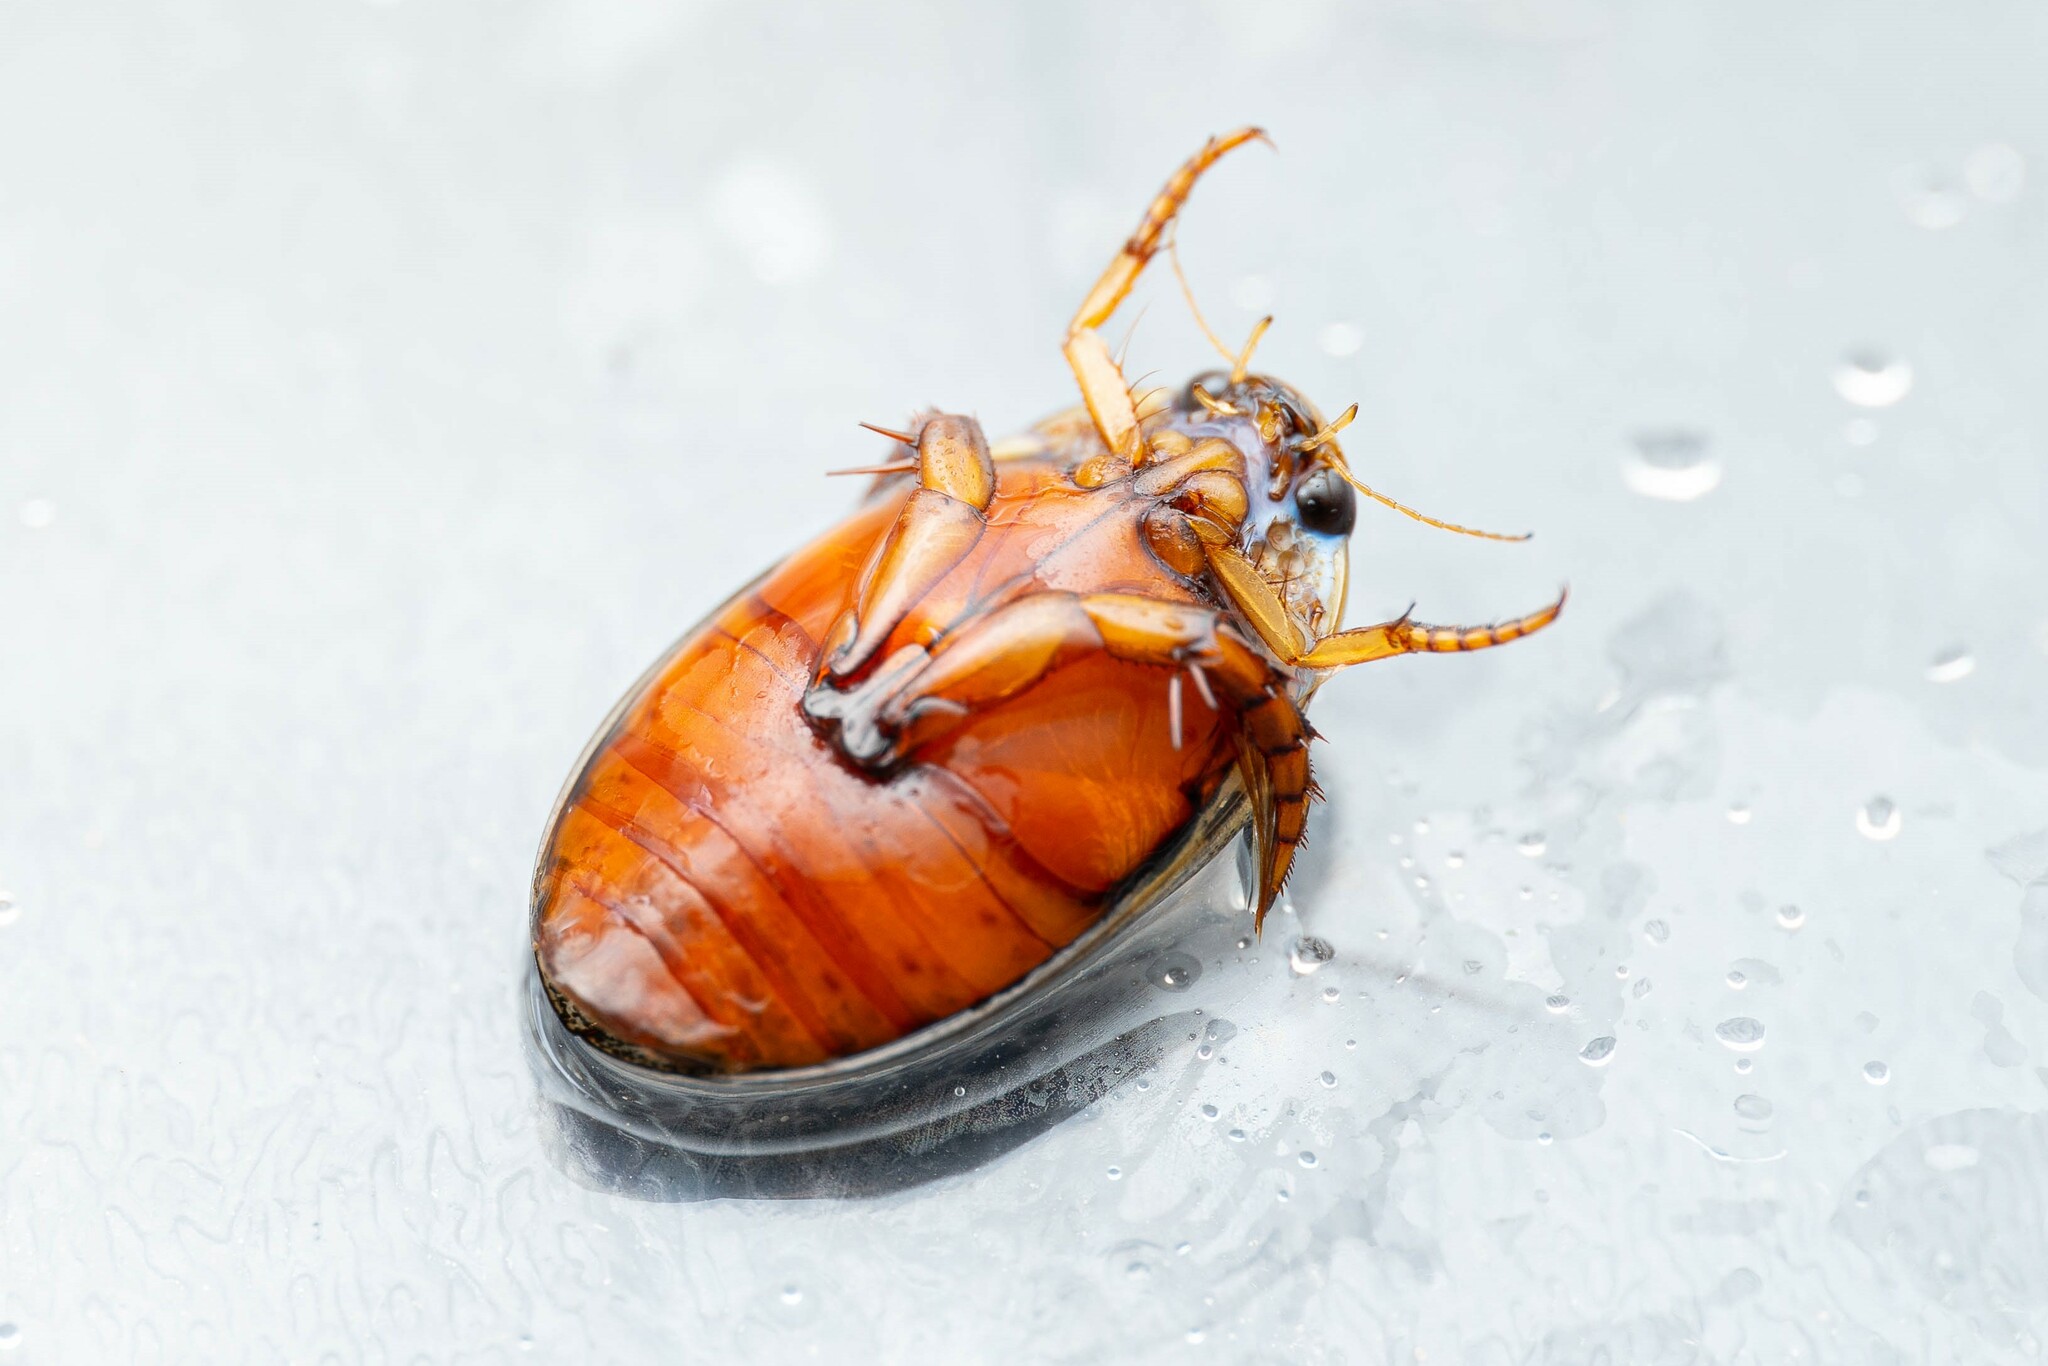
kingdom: Animalia
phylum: Arthropoda
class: Insecta
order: Coleoptera
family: Dytiscidae
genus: Thermonectus
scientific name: Thermonectus nigrofasciatus
